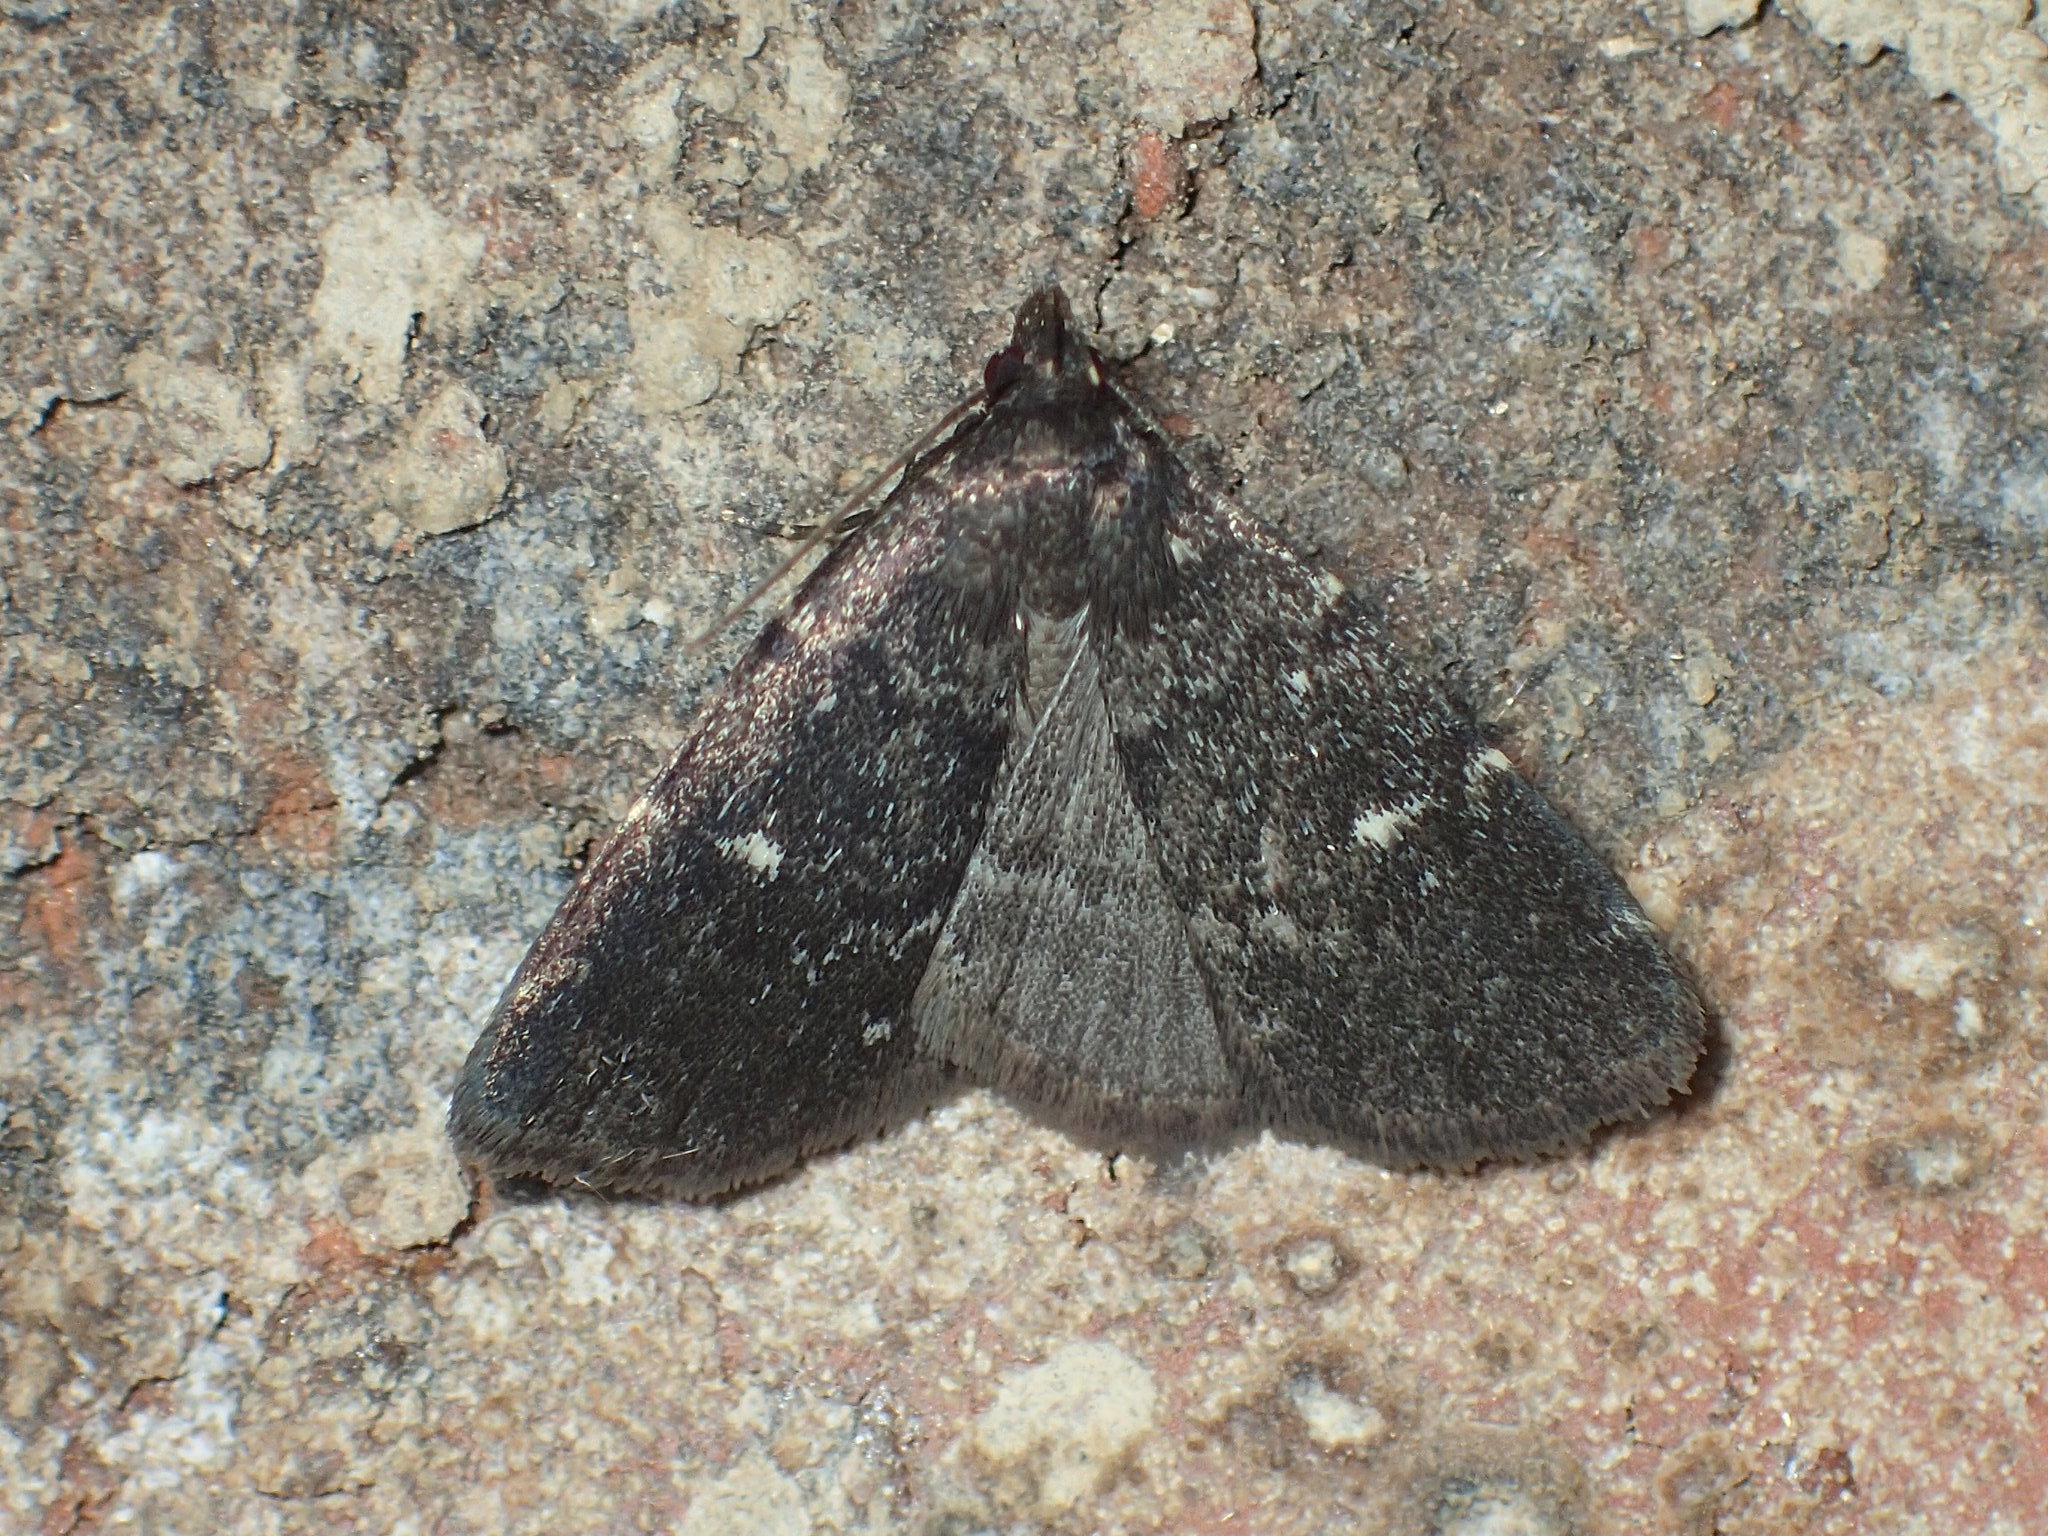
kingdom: Animalia
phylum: Arthropoda
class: Insecta
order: Lepidoptera
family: Erebidae
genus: Idia
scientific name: Idia julia
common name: Julia's idia moth
